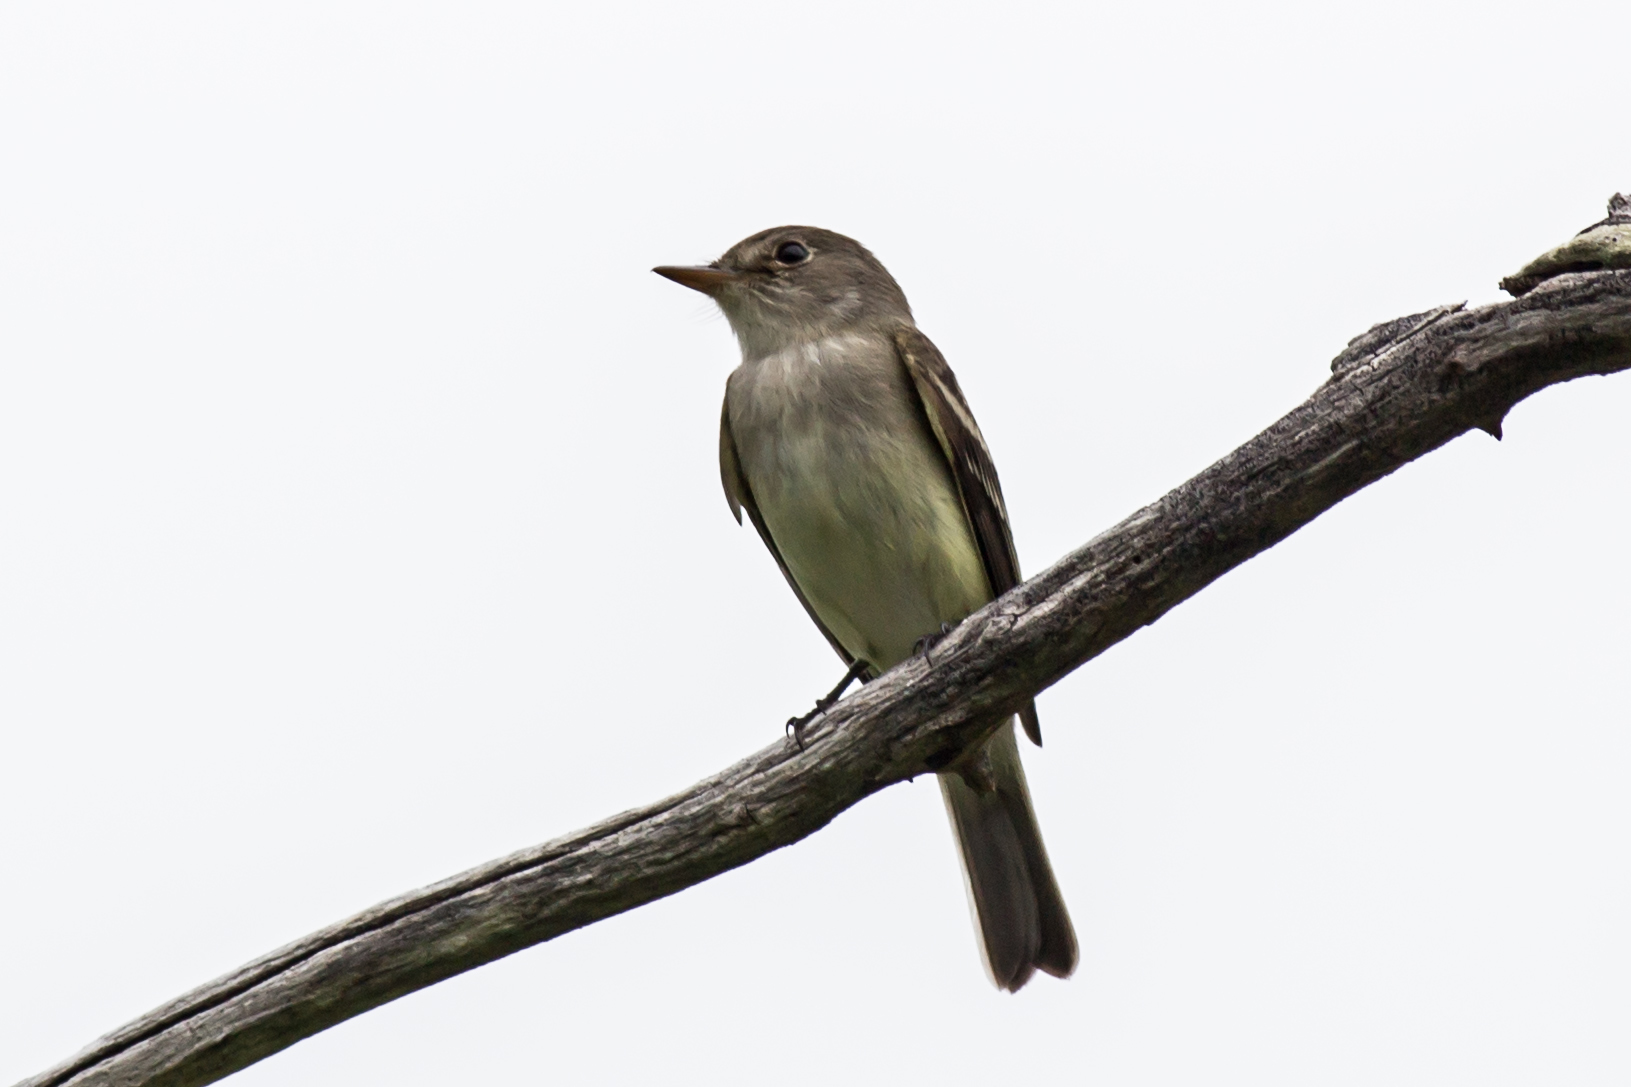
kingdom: Animalia
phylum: Chordata
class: Aves
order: Passeriformes
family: Tyrannidae
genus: Empidonax
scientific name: Empidonax
